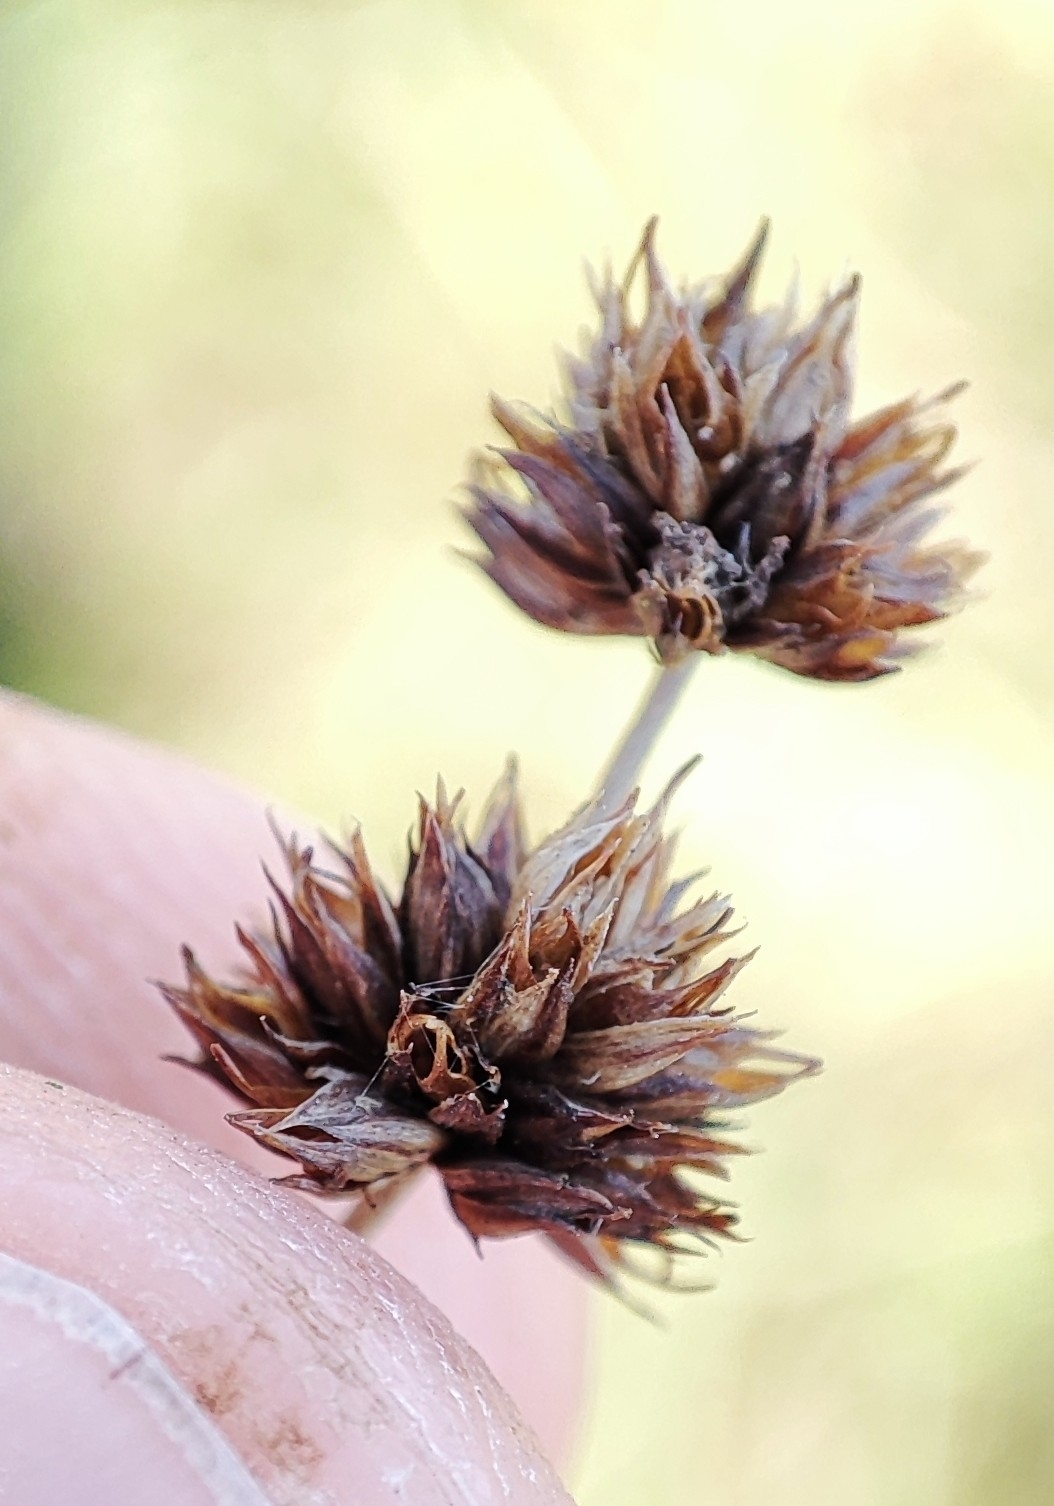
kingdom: Plantae
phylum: Tracheophyta
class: Liliopsida
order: Poales
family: Juncaceae
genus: Juncus
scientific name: Juncus articulatus
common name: Jointed rush
